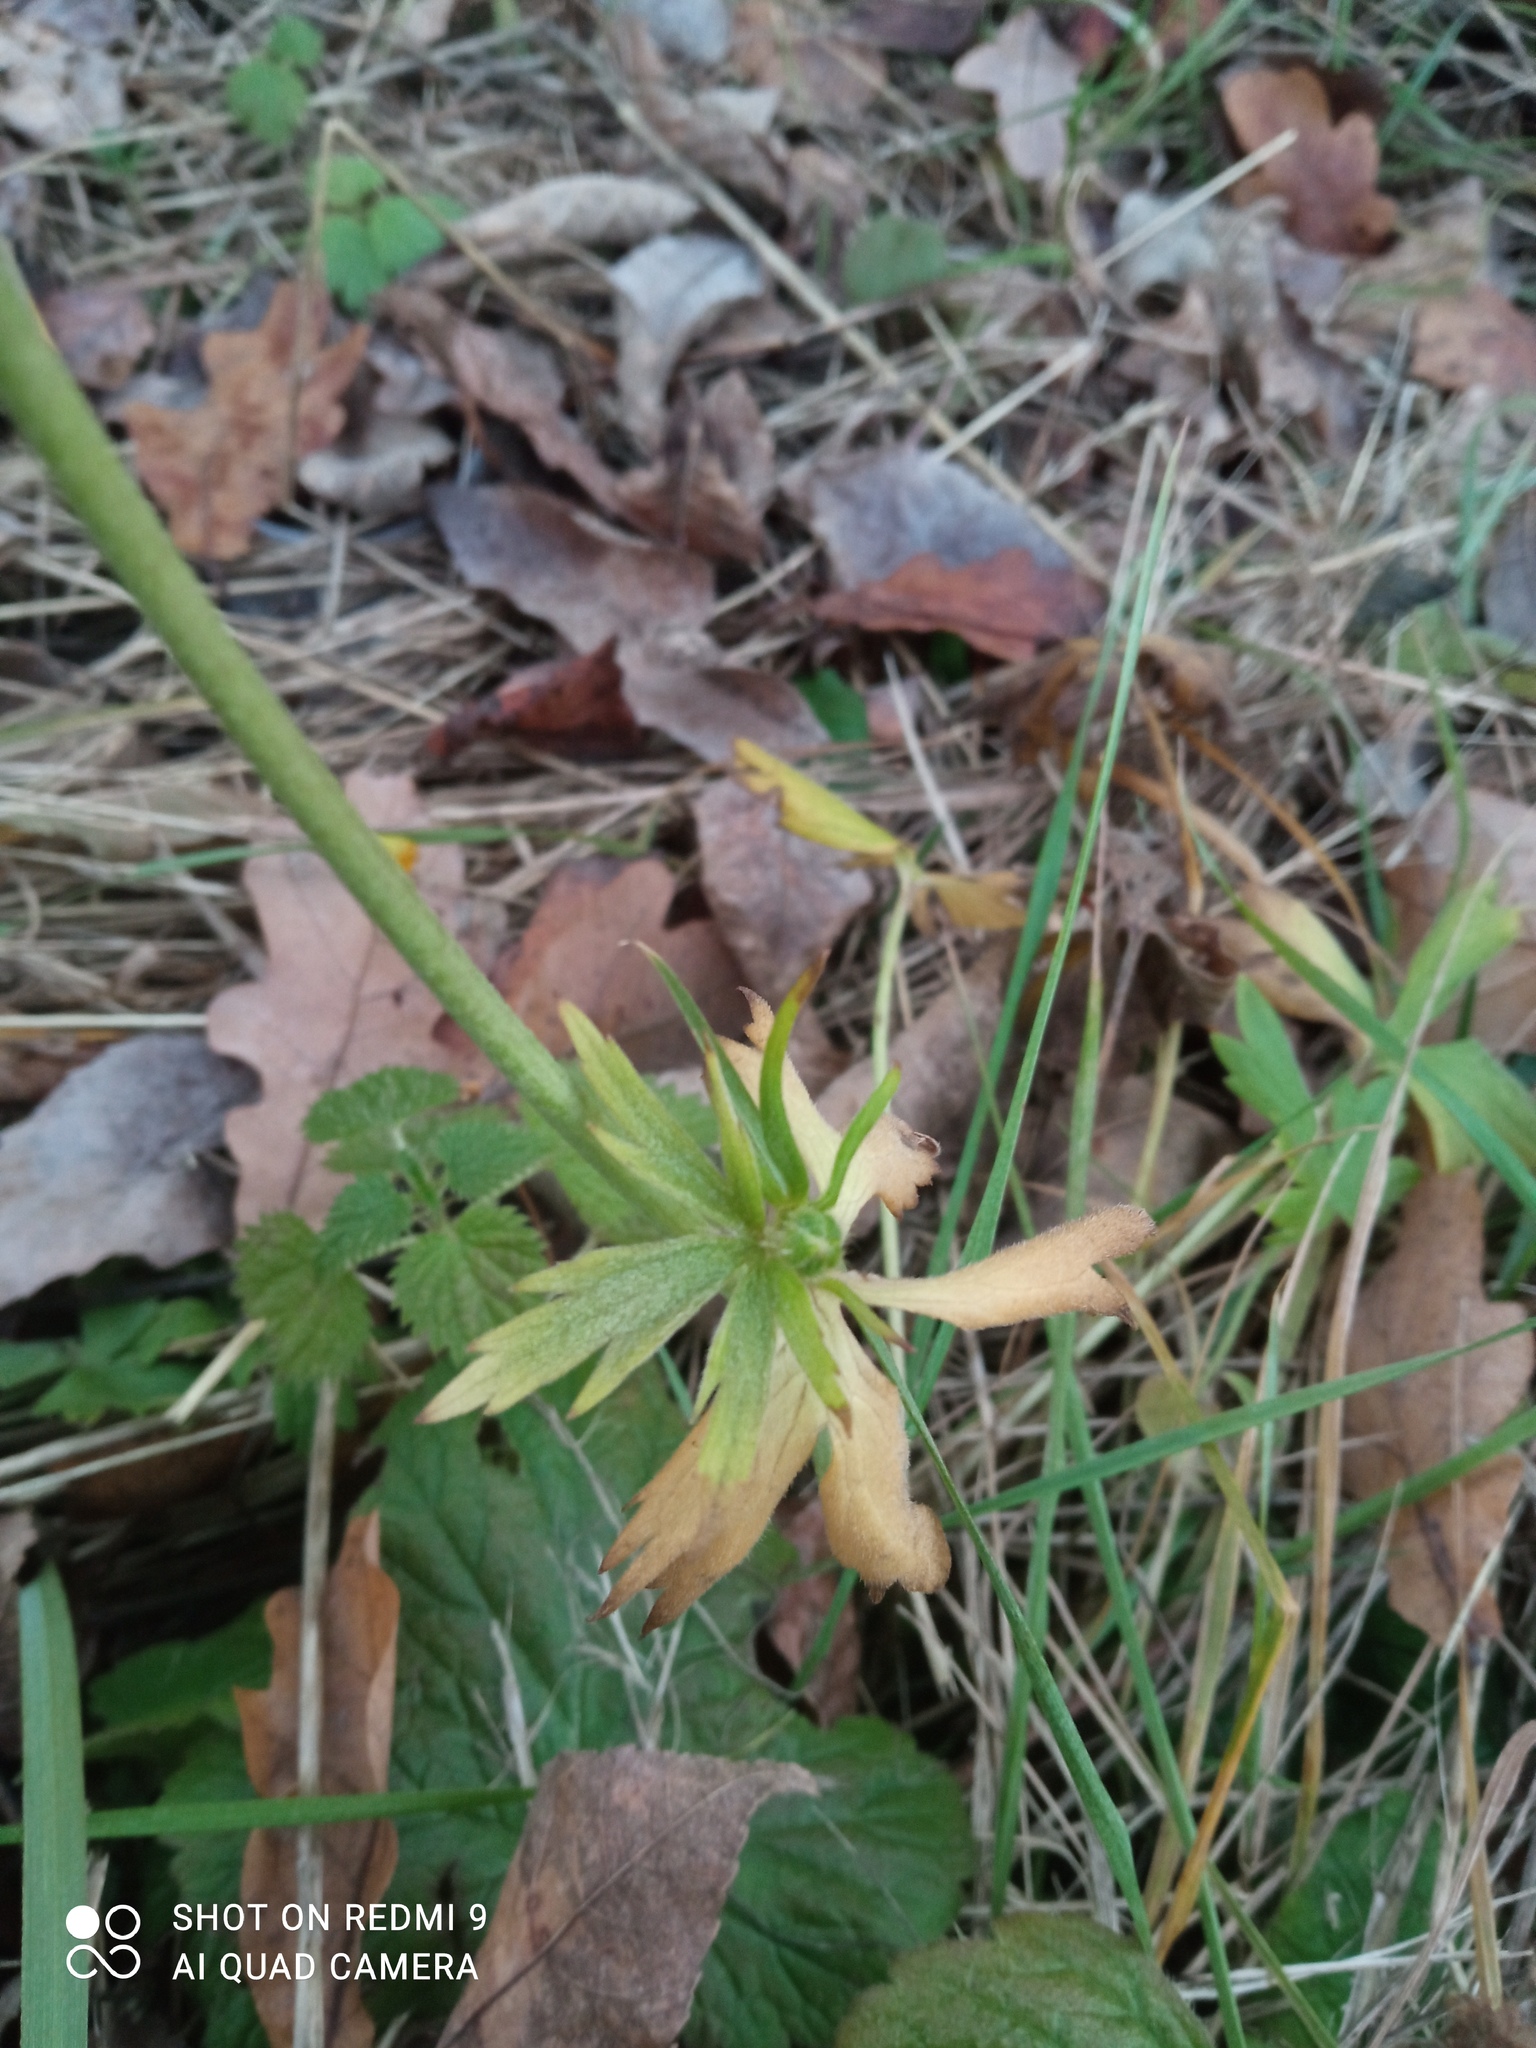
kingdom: Plantae
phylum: Tracheophyta
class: Magnoliopsida
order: Ranunculales
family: Ranunculaceae
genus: Ranunculus
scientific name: Ranunculus acris
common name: Meadow buttercup
